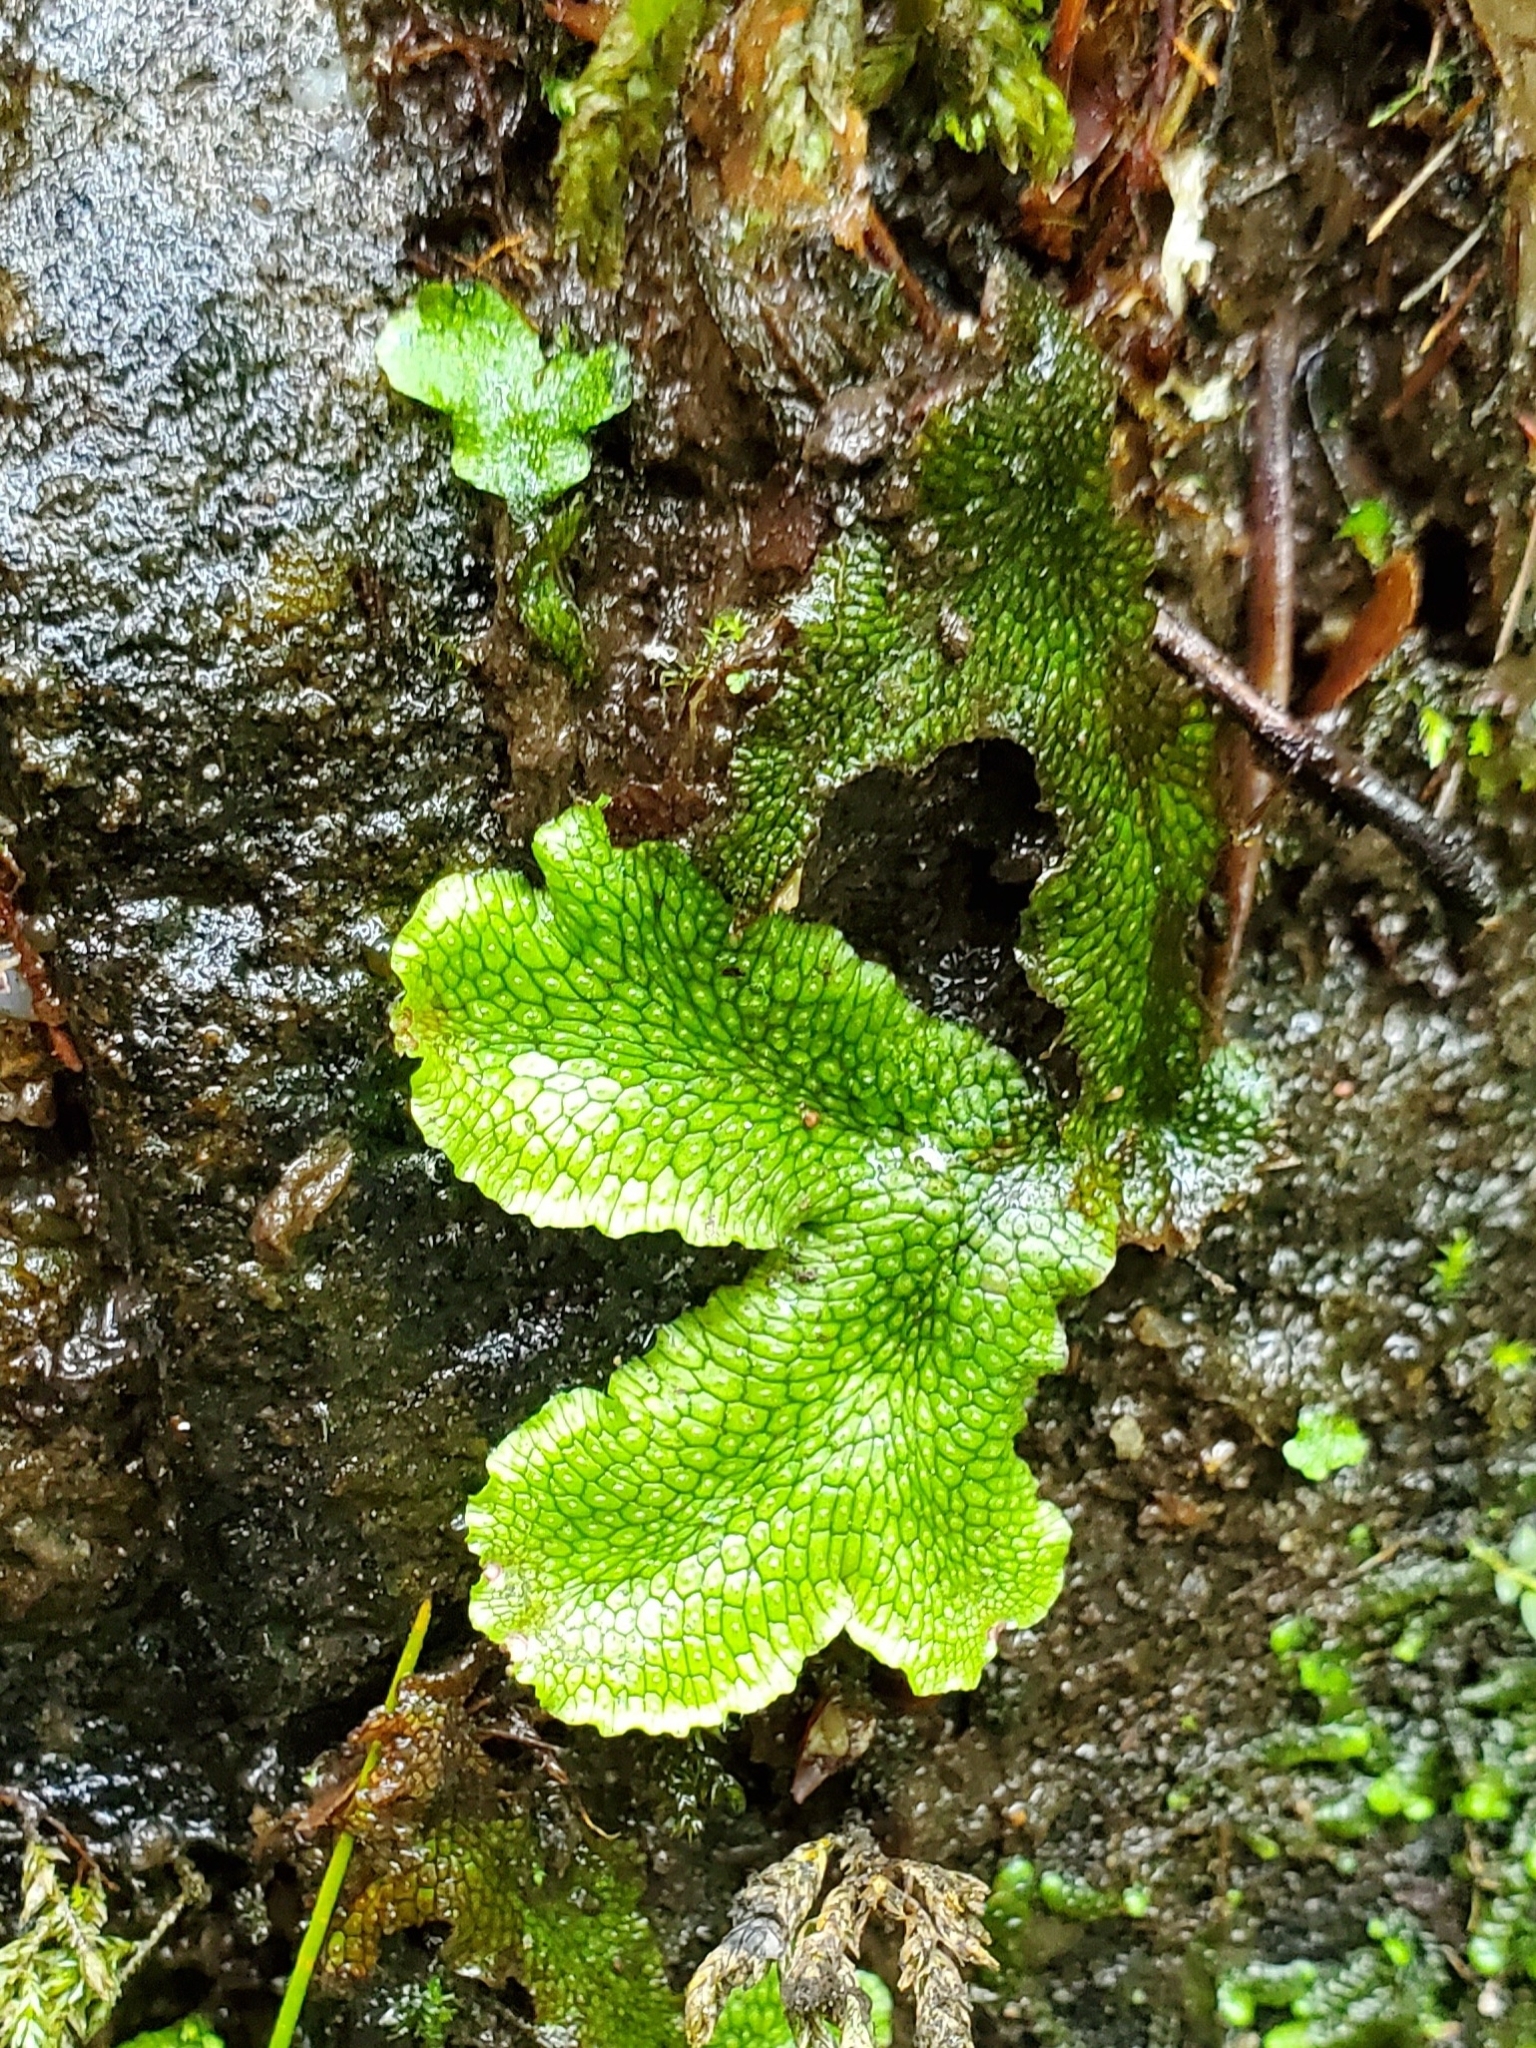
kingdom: Plantae
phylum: Marchantiophyta
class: Marchantiopsida
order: Marchantiales
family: Conocephalaceae
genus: Conocephalum
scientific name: Conocephalum salebrosum
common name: Cat-tongue liverwort
